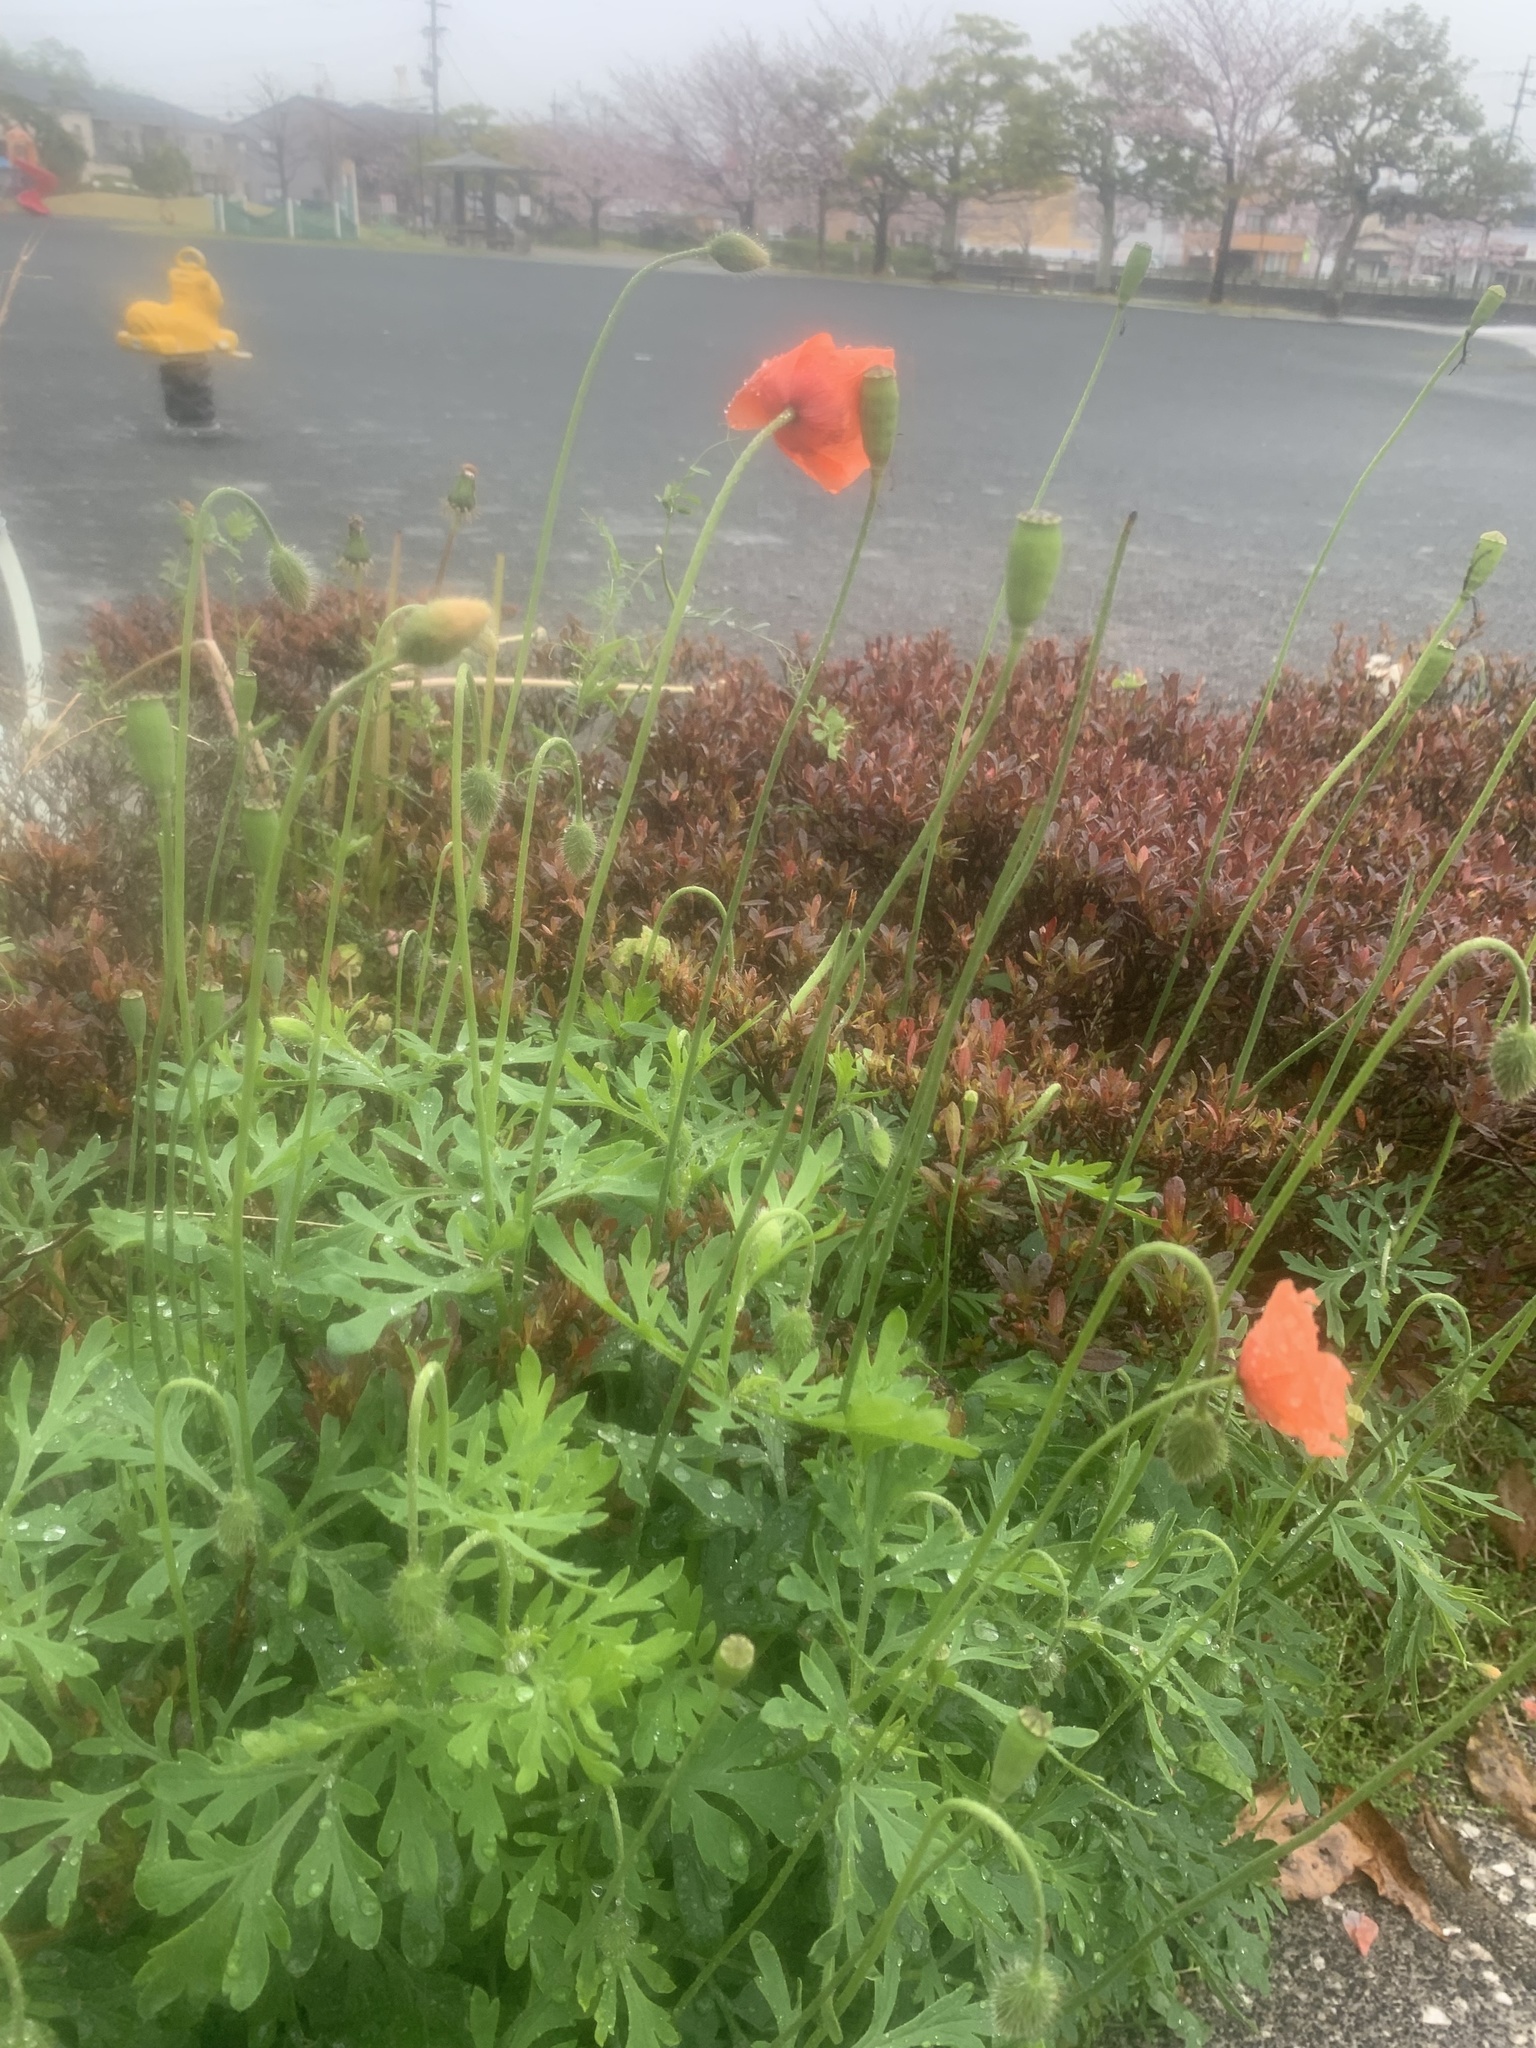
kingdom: Plantae
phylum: Tracheophyta
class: Magnoliopsida
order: Ranunculales
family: Papaveraceae
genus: Papaver
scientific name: Papaver dubium
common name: Long-headed poppy
